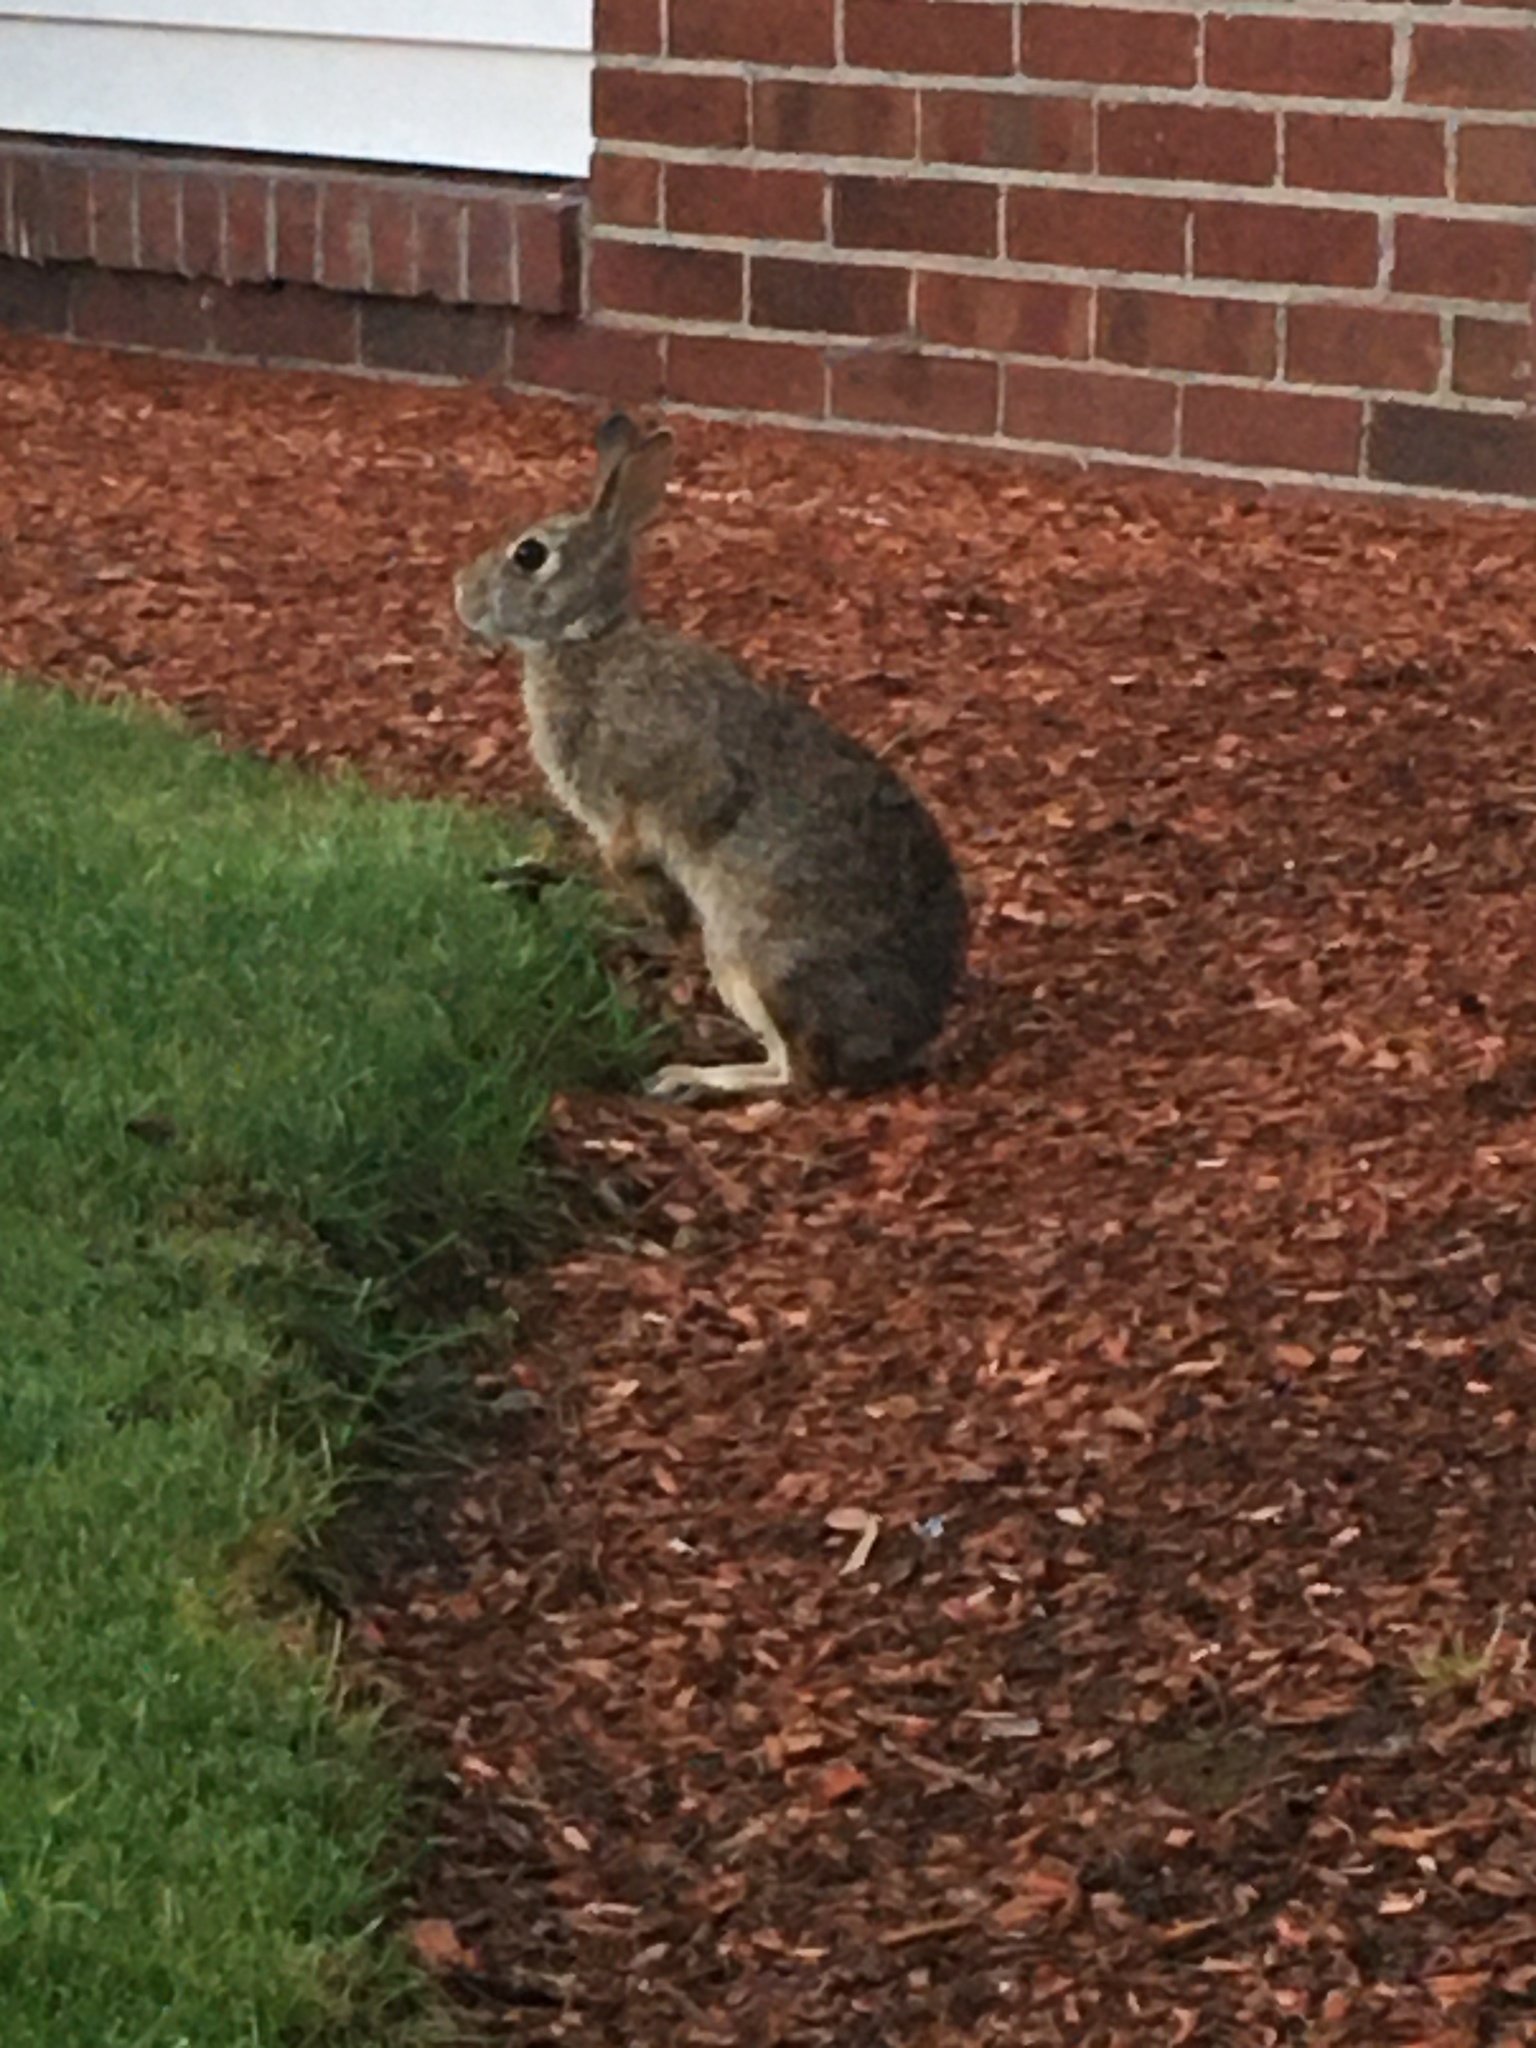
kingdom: Animalia
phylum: Chordata
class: Mammalia
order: Lagomorpha
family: Leporidae
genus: Sylvilagus
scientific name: Sylvilagus floridanus
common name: Eastern cottontail
